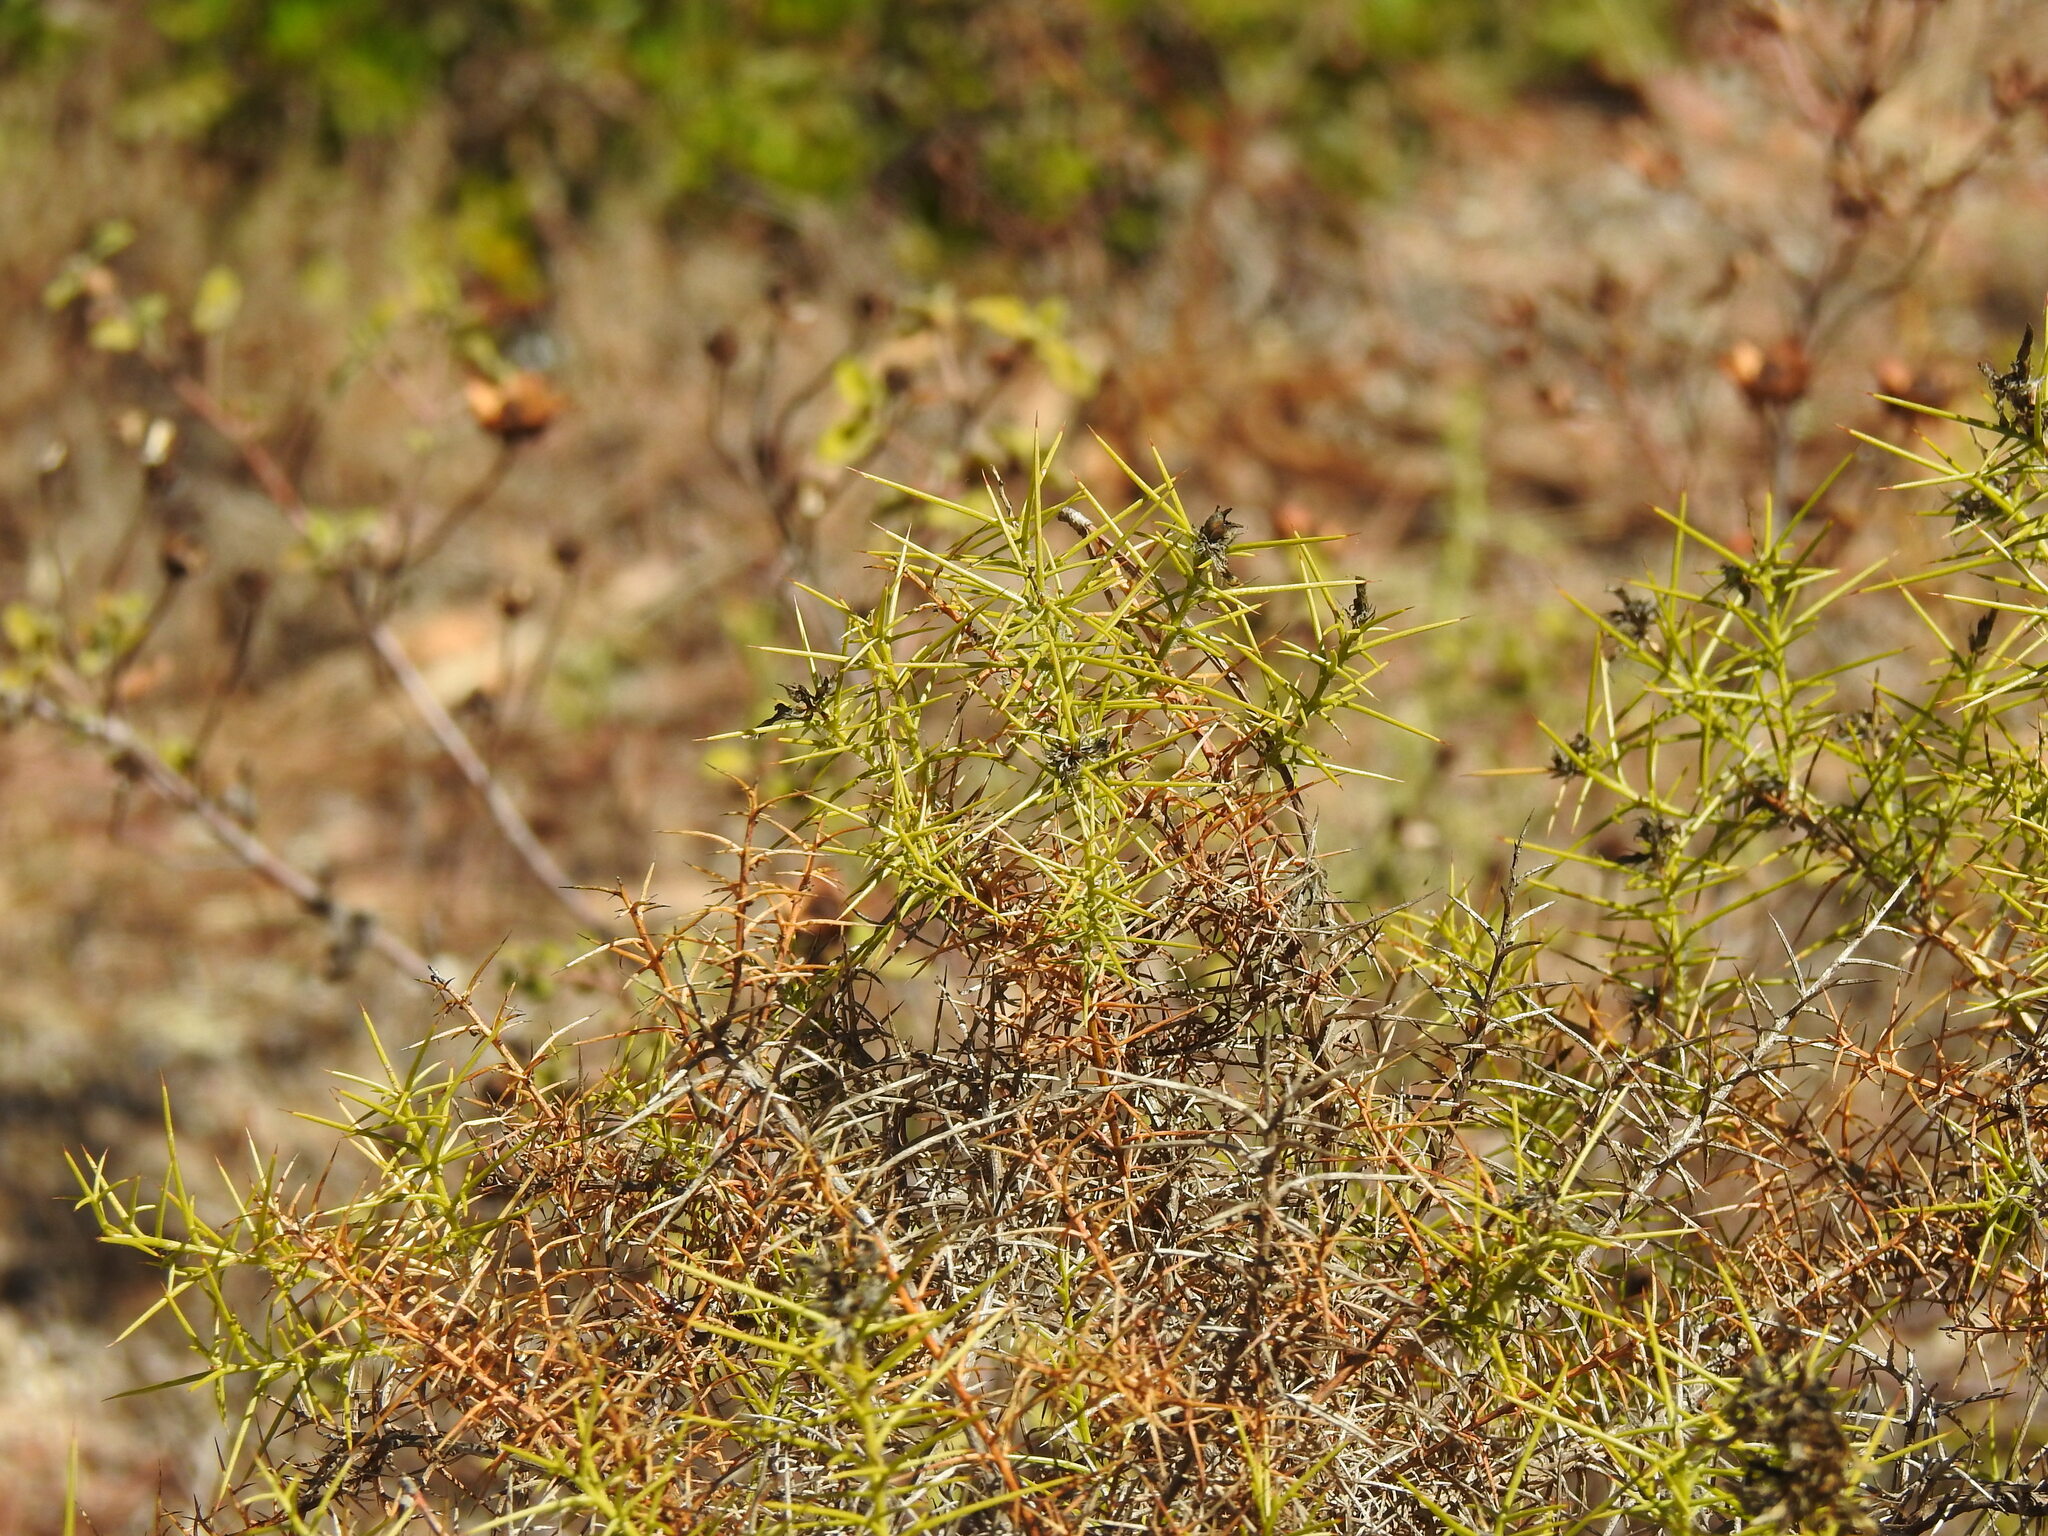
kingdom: Plantae
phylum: Tracheophyta
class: Magnoliopsida
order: Fabales
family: Fabaceae
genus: Genista
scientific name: Genista hirsuta
